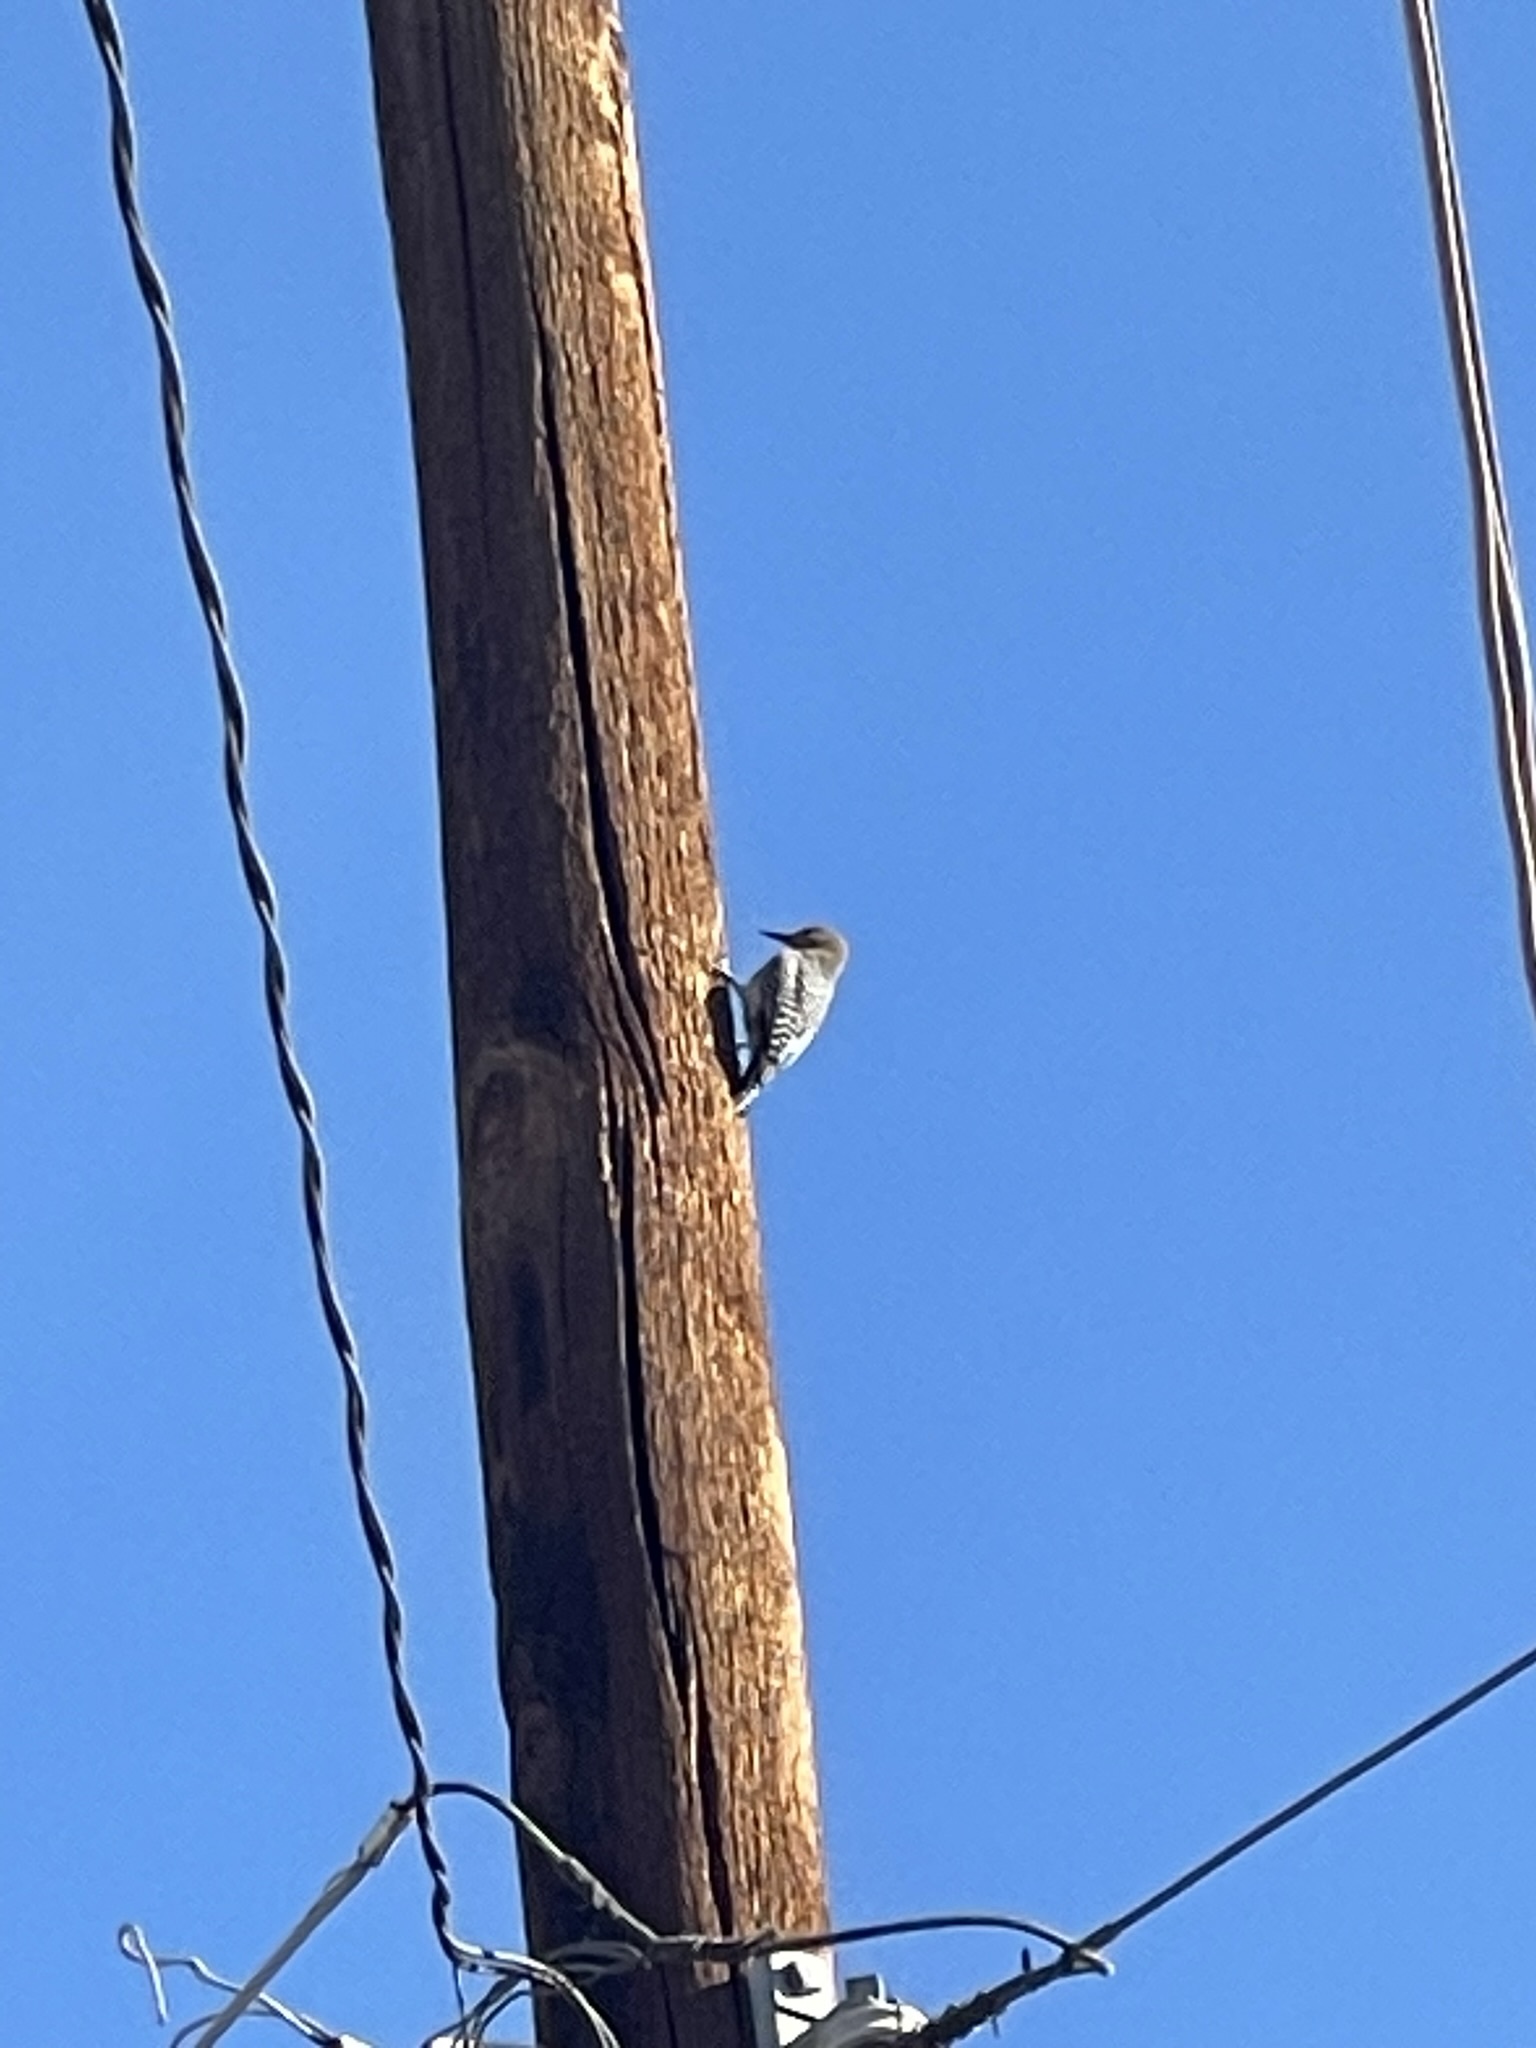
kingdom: Animalia
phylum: Chordata
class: Aves
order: Piciformes
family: Picidae
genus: Melanerpes
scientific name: Melanerpes uropygialis
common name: Gila woodpecker
